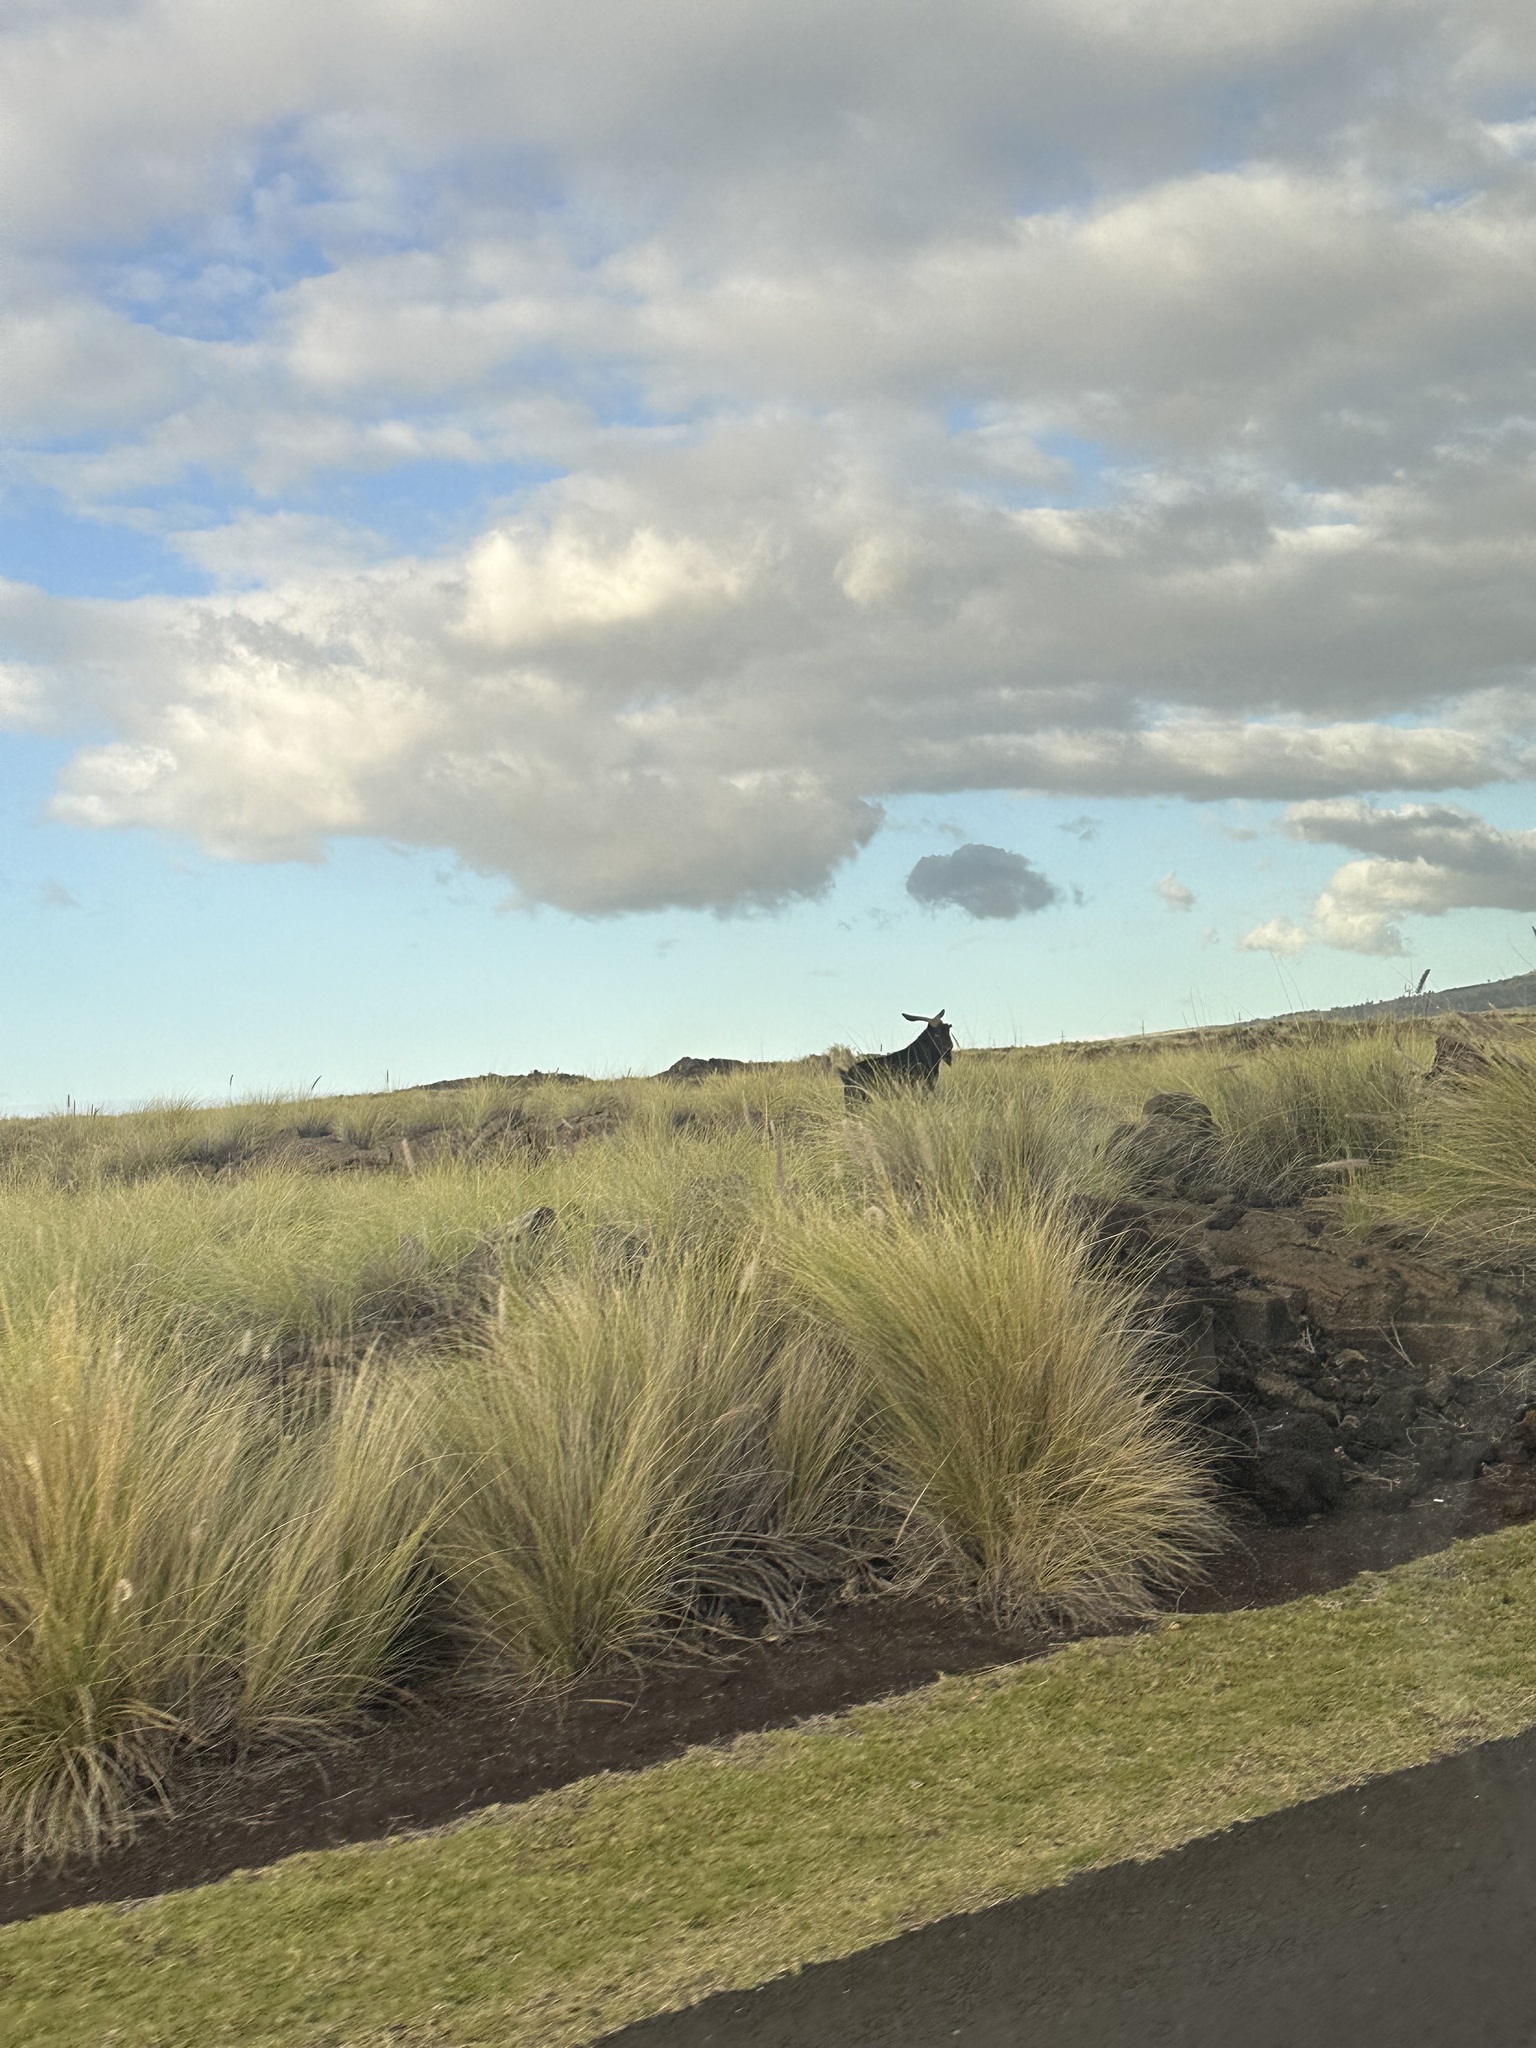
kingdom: Animalia
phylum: Chordata
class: Mammalia
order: Artiodactyla
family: Bovidae
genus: Capra
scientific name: Capra hircus
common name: Domestic goat
